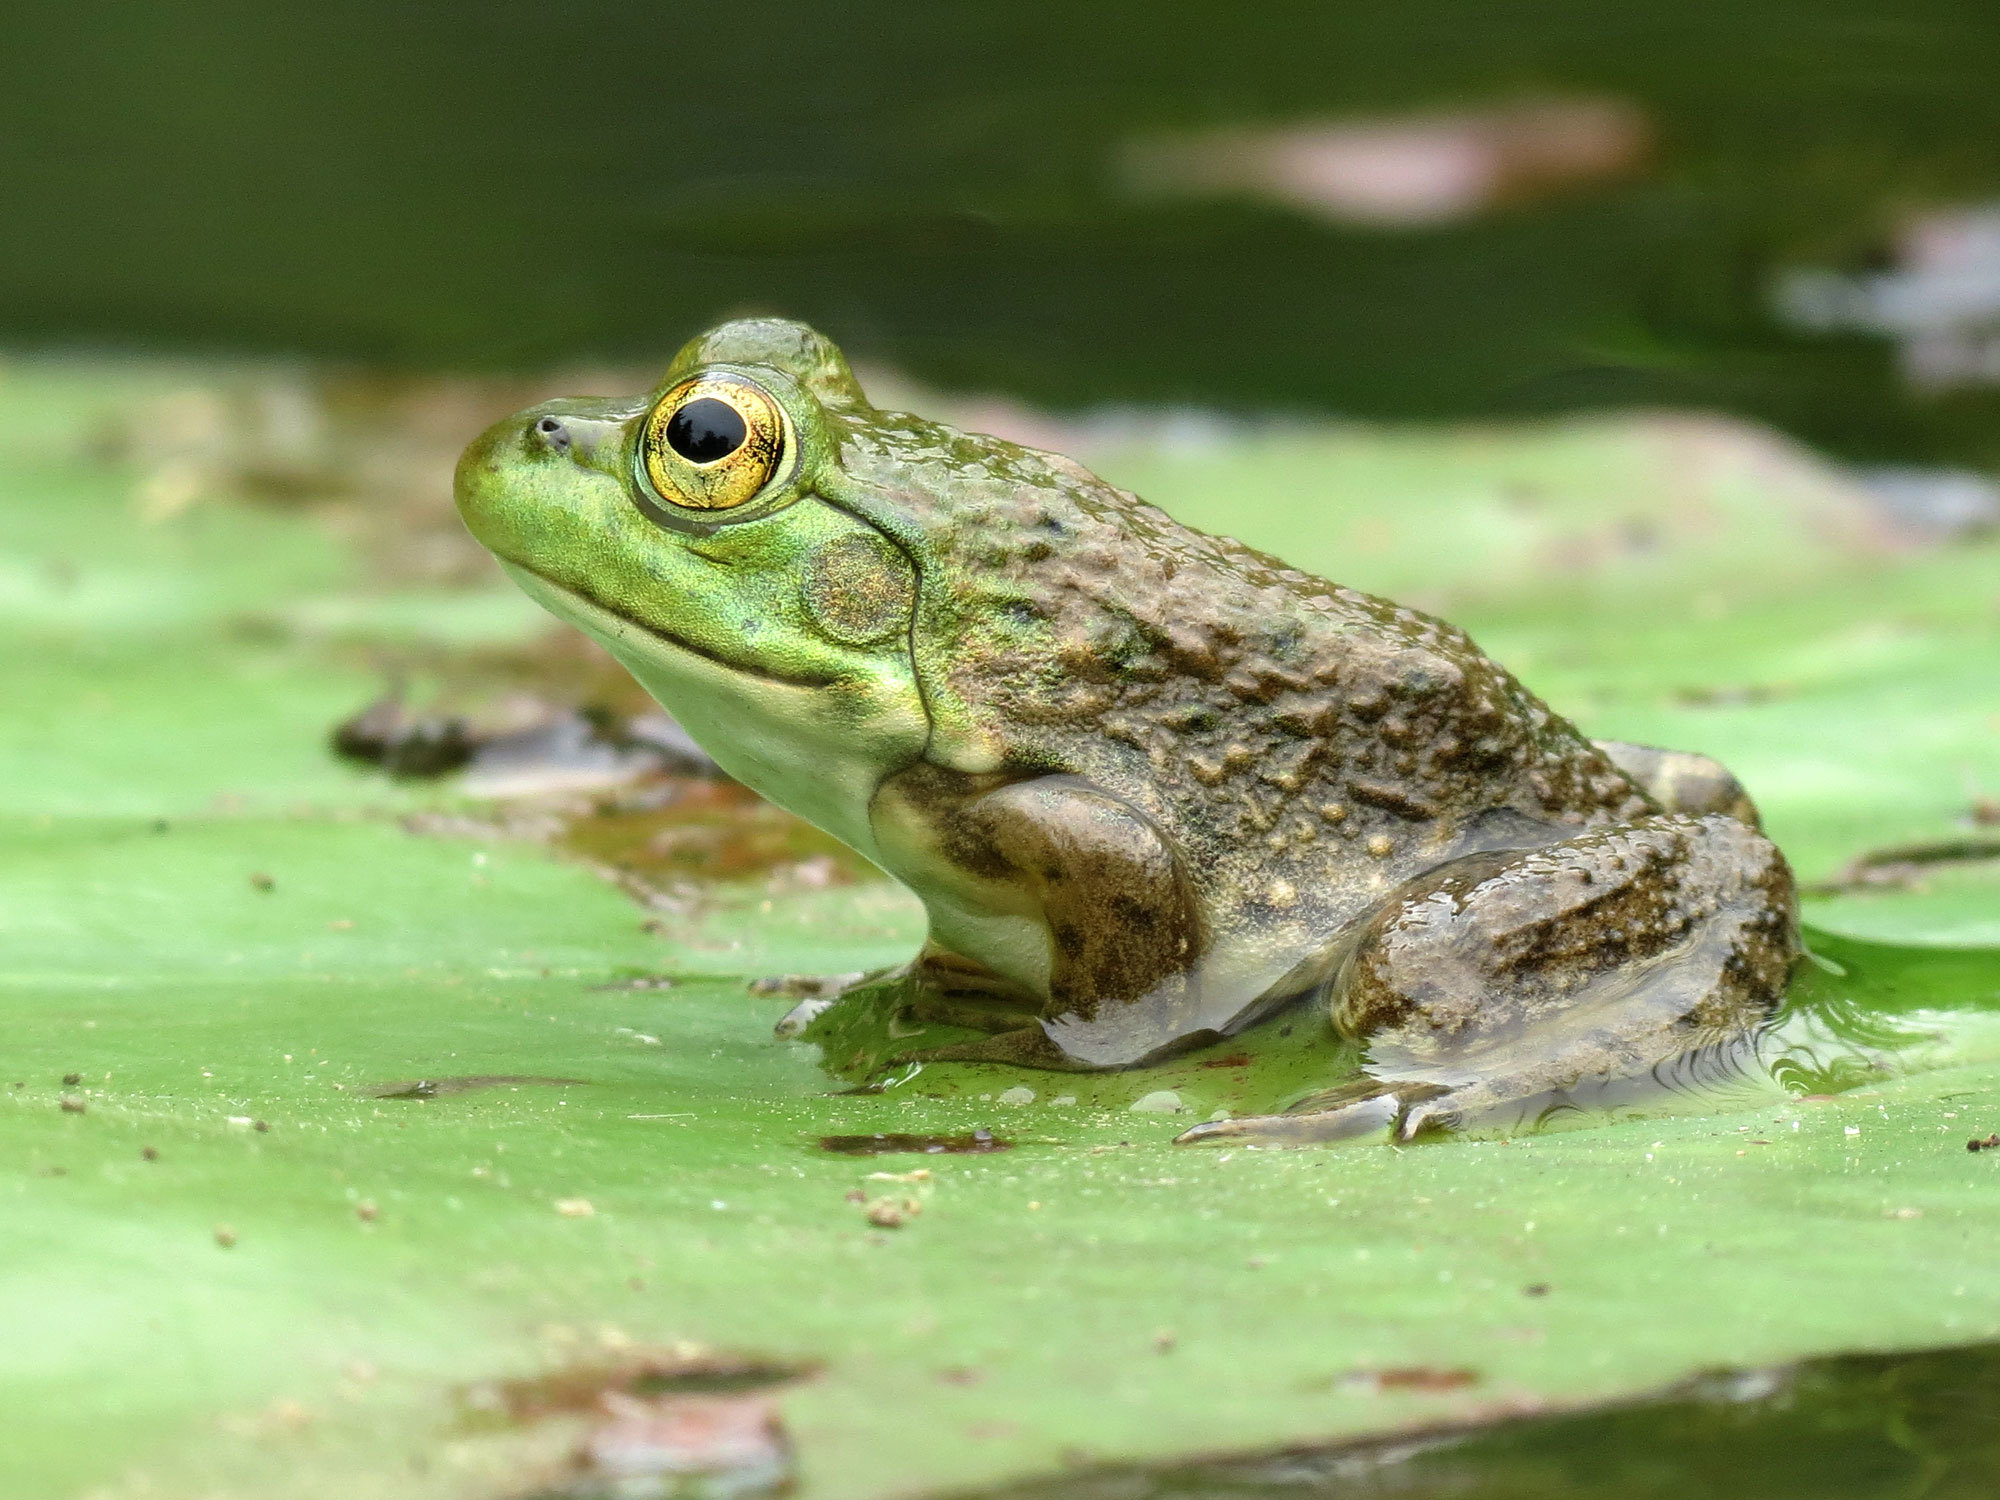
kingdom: Animalia
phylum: Chordata
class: Amphibia
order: Anura
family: Ranidae
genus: Lithobates
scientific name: Lithobates catesbeianus
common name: American bullfrog
